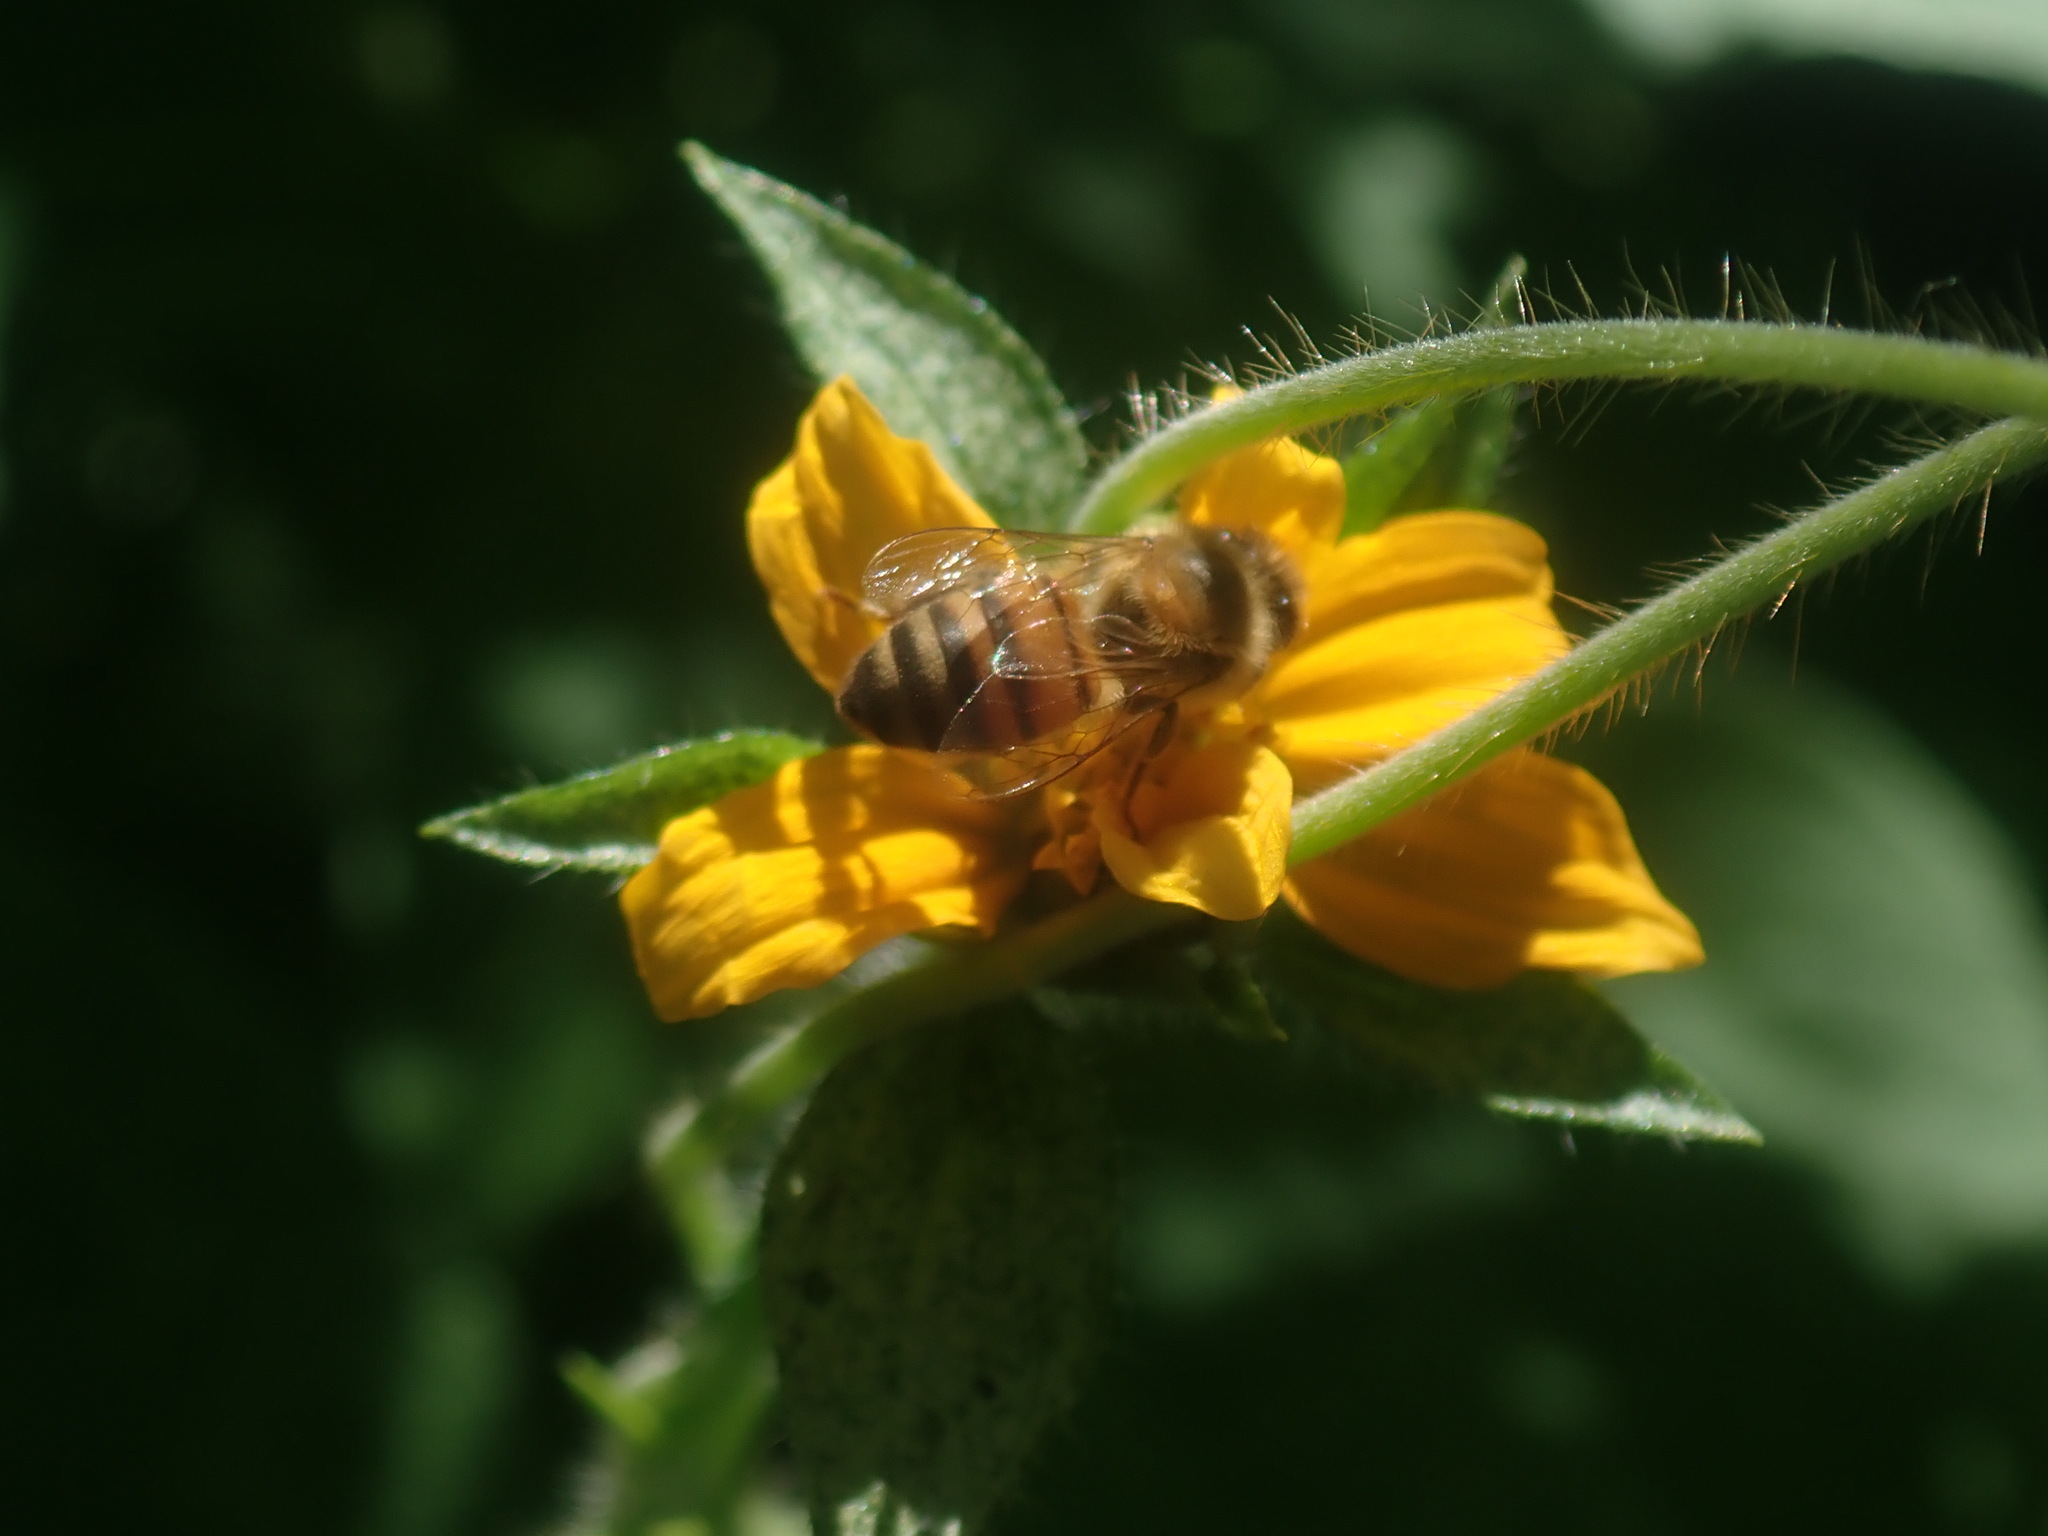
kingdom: Animalia
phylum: Arthropoda
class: Insecta
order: Hymenoptera
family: Apidae
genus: Apis
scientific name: Apis mellifera
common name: Honey bee
